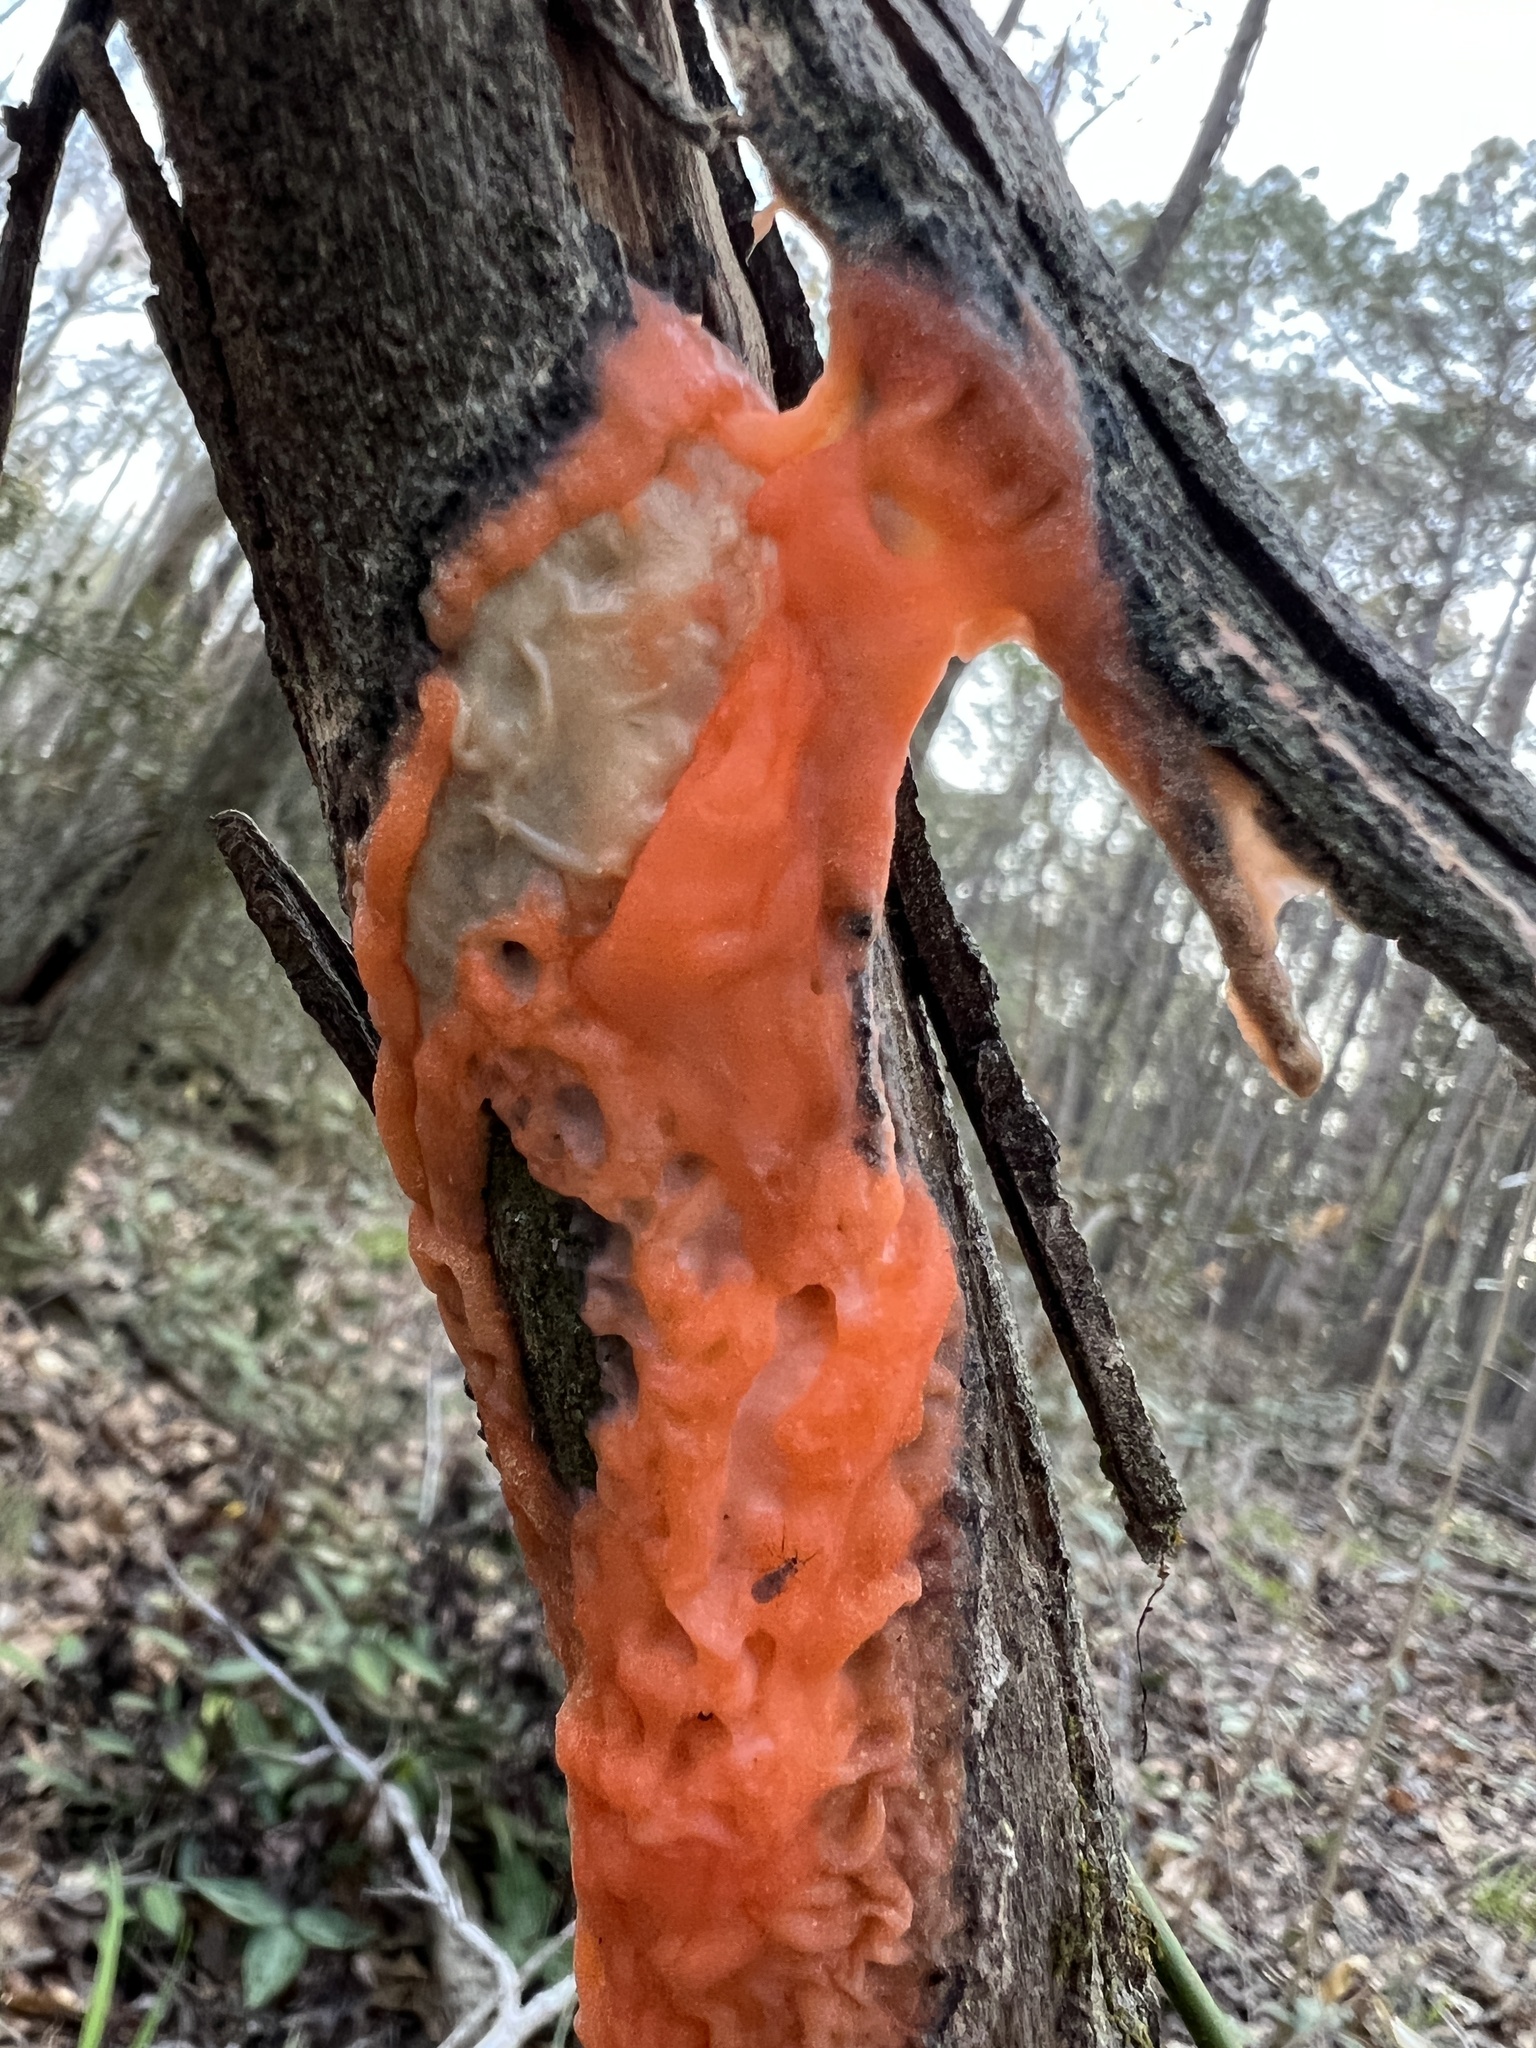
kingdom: Fungi
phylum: Ascomycota
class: Sordariomycetes
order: Hypocreales
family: Nectriaceae
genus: Fusicolla
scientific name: Fusicolla merismoides
